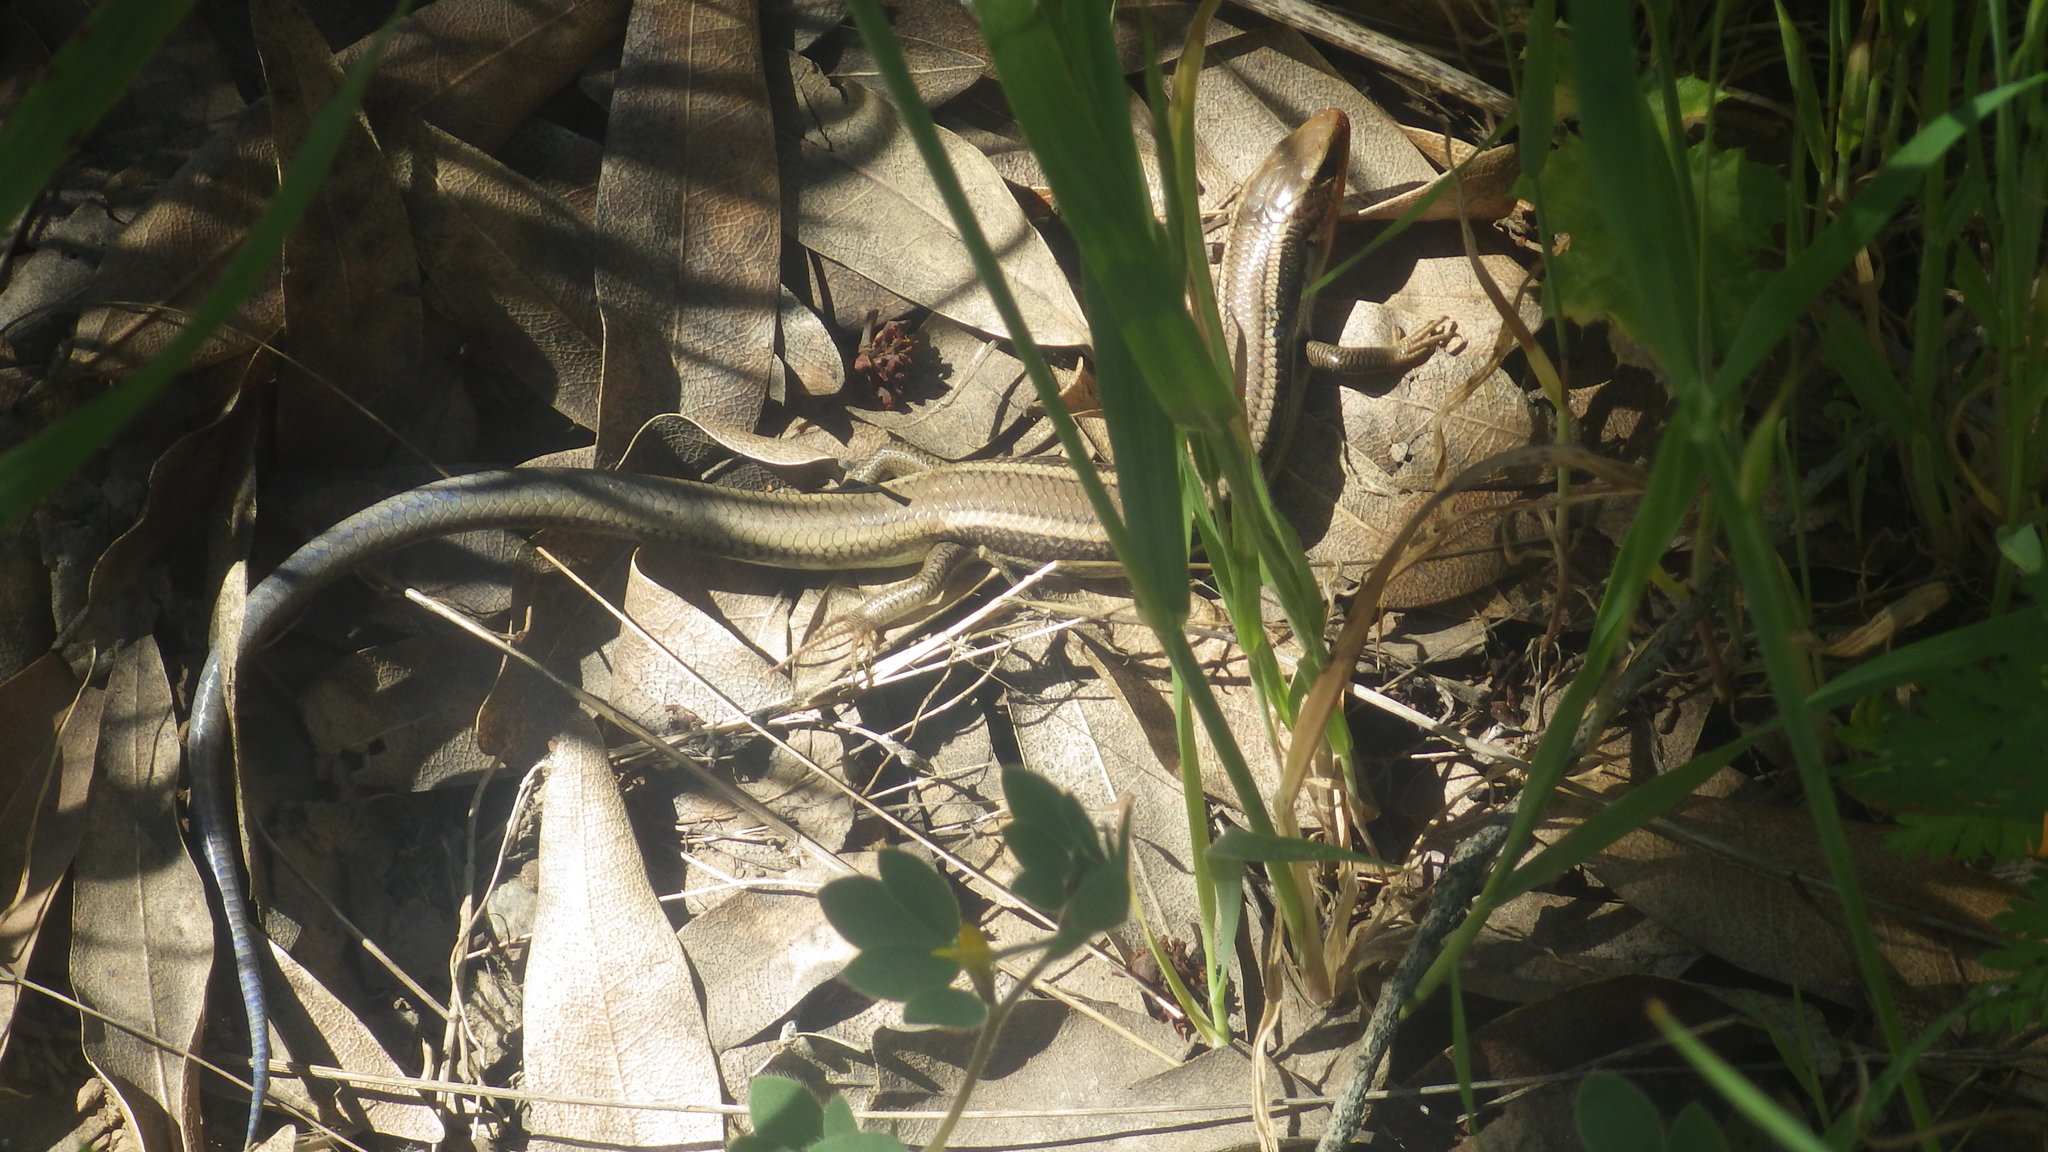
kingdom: Animalia
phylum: Chordata
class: Squamata
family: Scincidae
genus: Plestiodon
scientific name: Plestiodon skiltonianus
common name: Coronado island skink [interparietalis]
